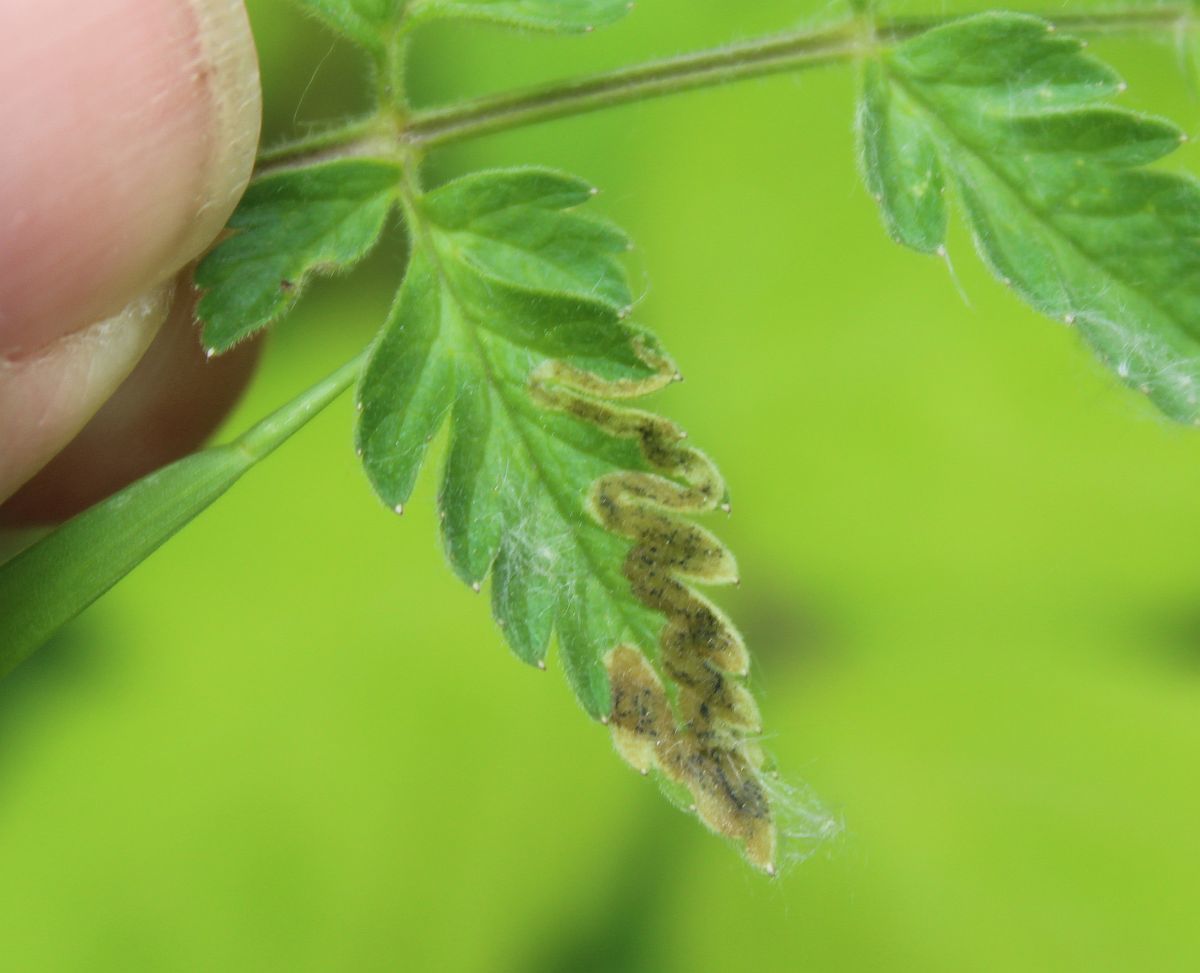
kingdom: Animalia
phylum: Arthropoda
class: Insecta
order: Diptera
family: Agromyzidae
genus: Phytomyza
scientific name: Phytomyza chaerophylli
